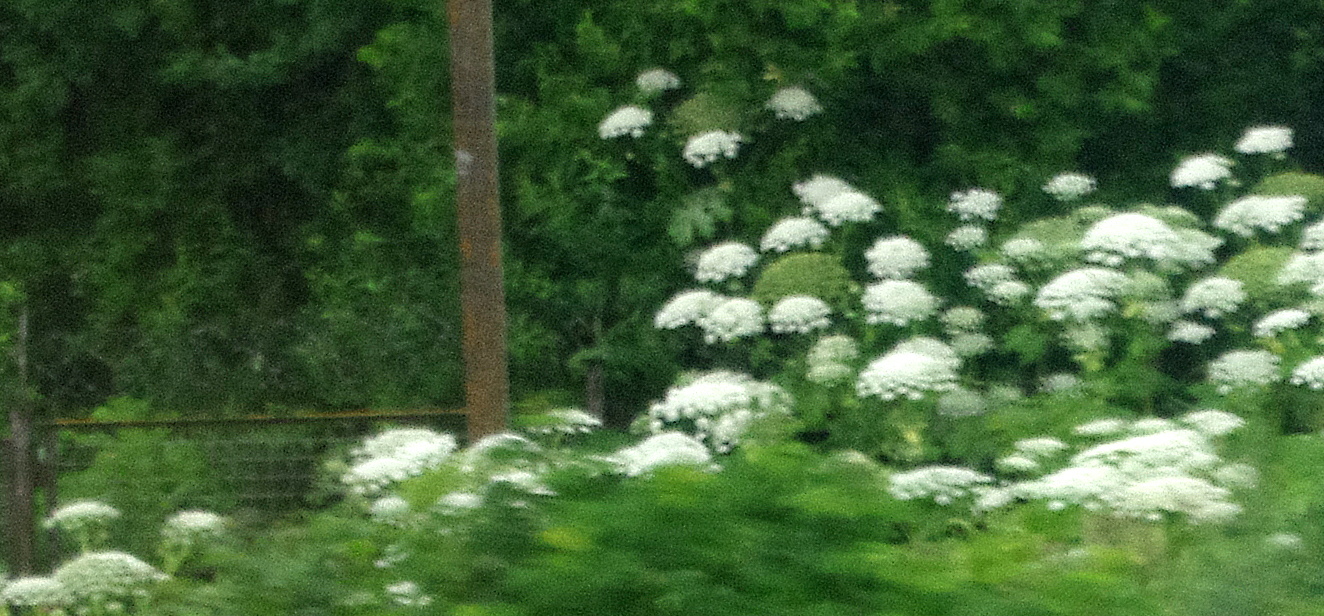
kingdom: Plantae
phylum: Tracheophyta
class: Magnoliopsida
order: Apiales
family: Apiaceae
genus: Heracleum
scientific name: Heracleum sosnowskyi
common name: Sosnowsky's hogweed
